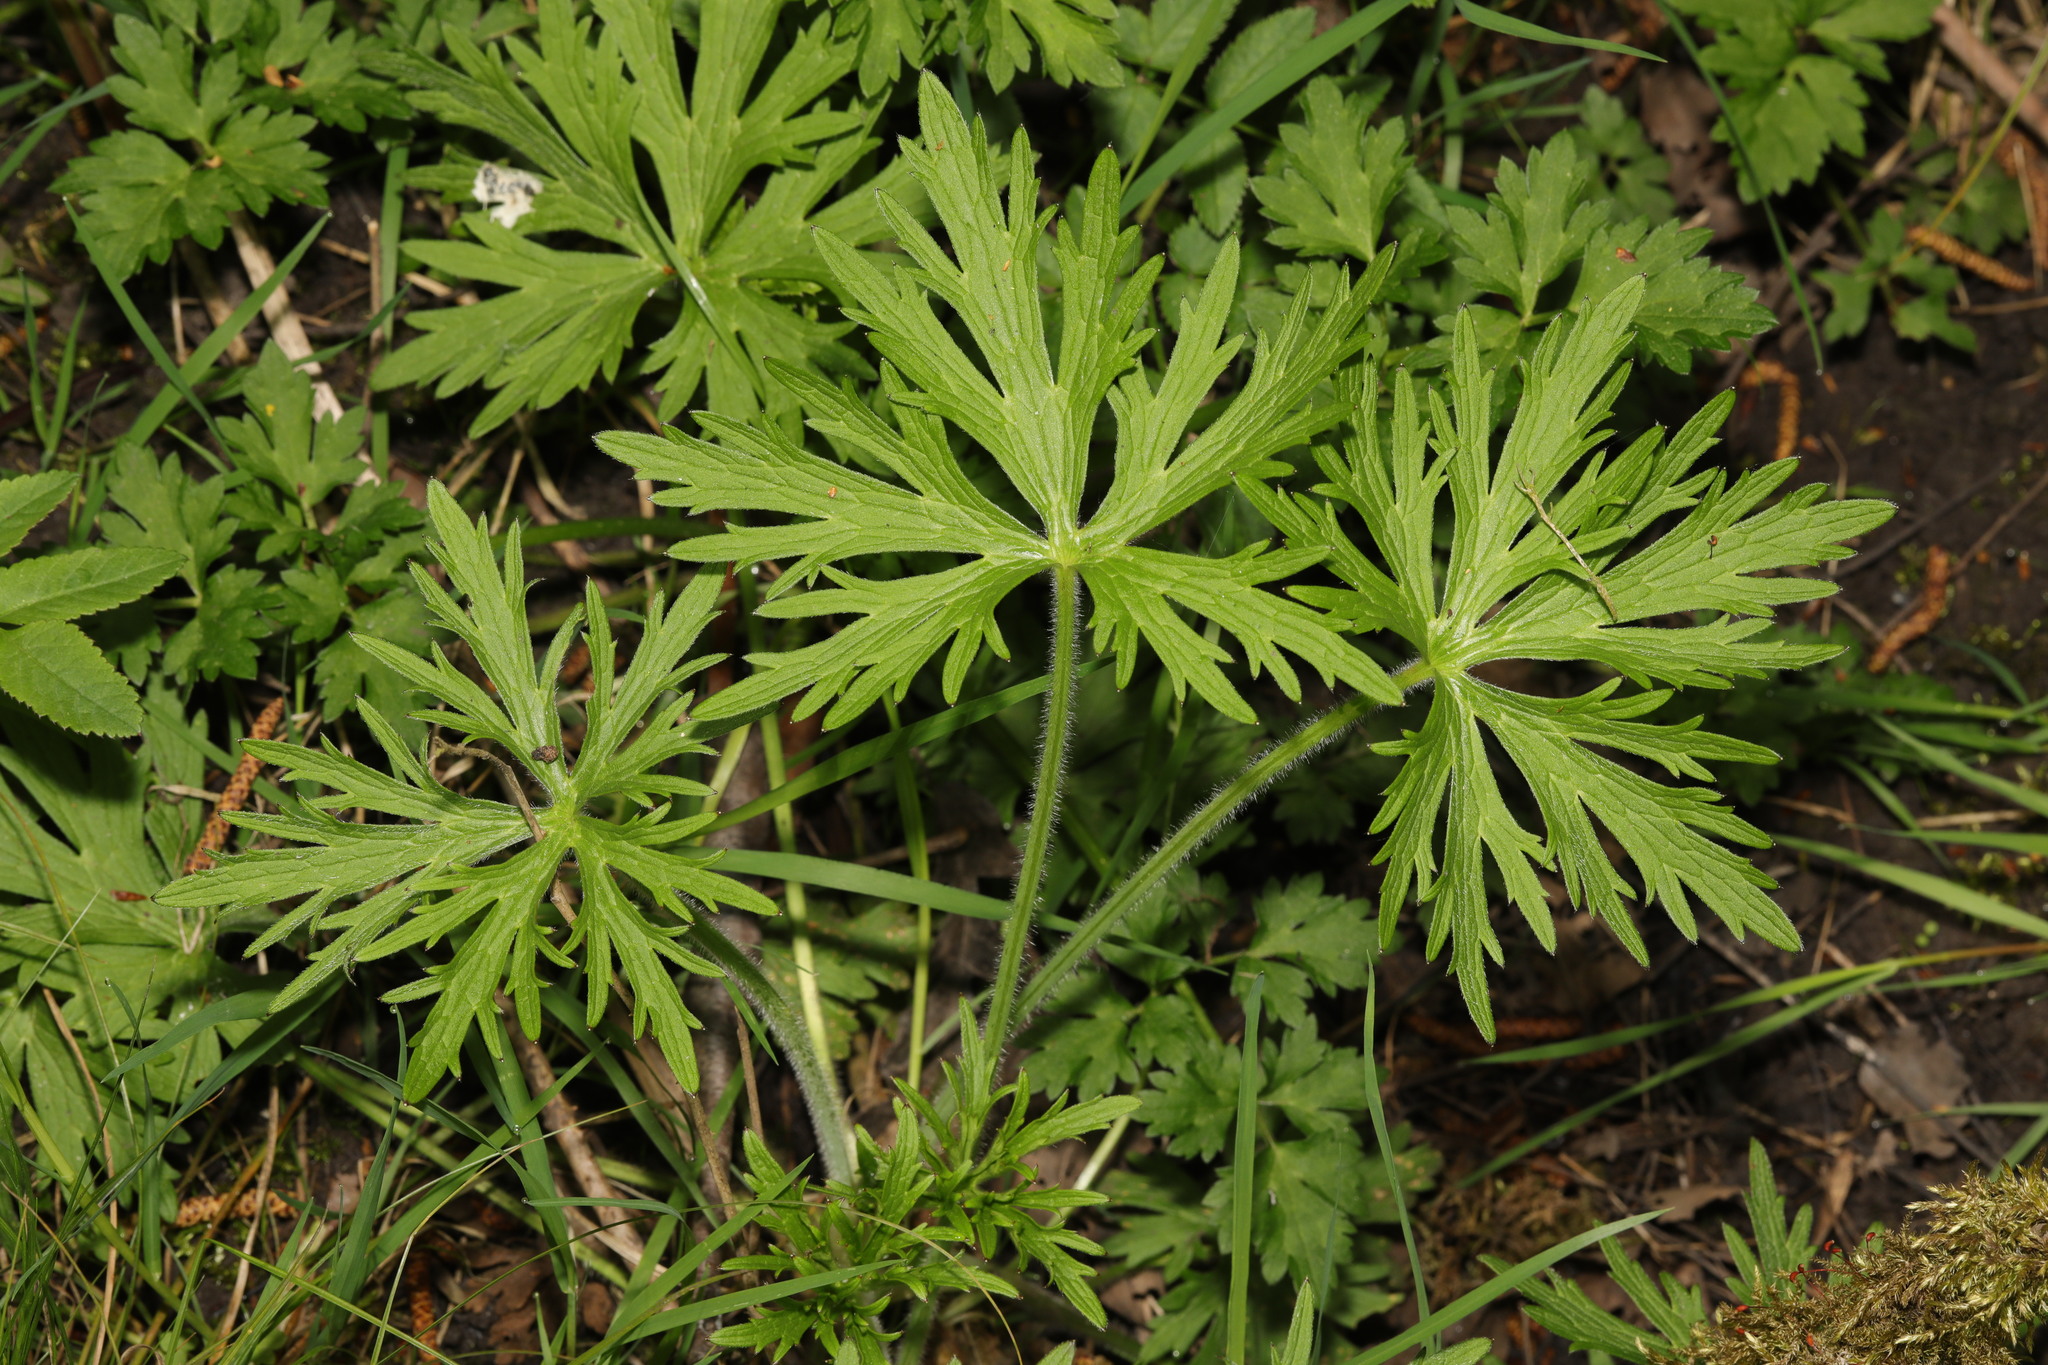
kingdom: Plantae
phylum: Tracheophyta
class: Magnoliopsida
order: Ranunculales
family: Ranunculaceae
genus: Ranunculus
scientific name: Ranunculus acris
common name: Meadow buttercup
